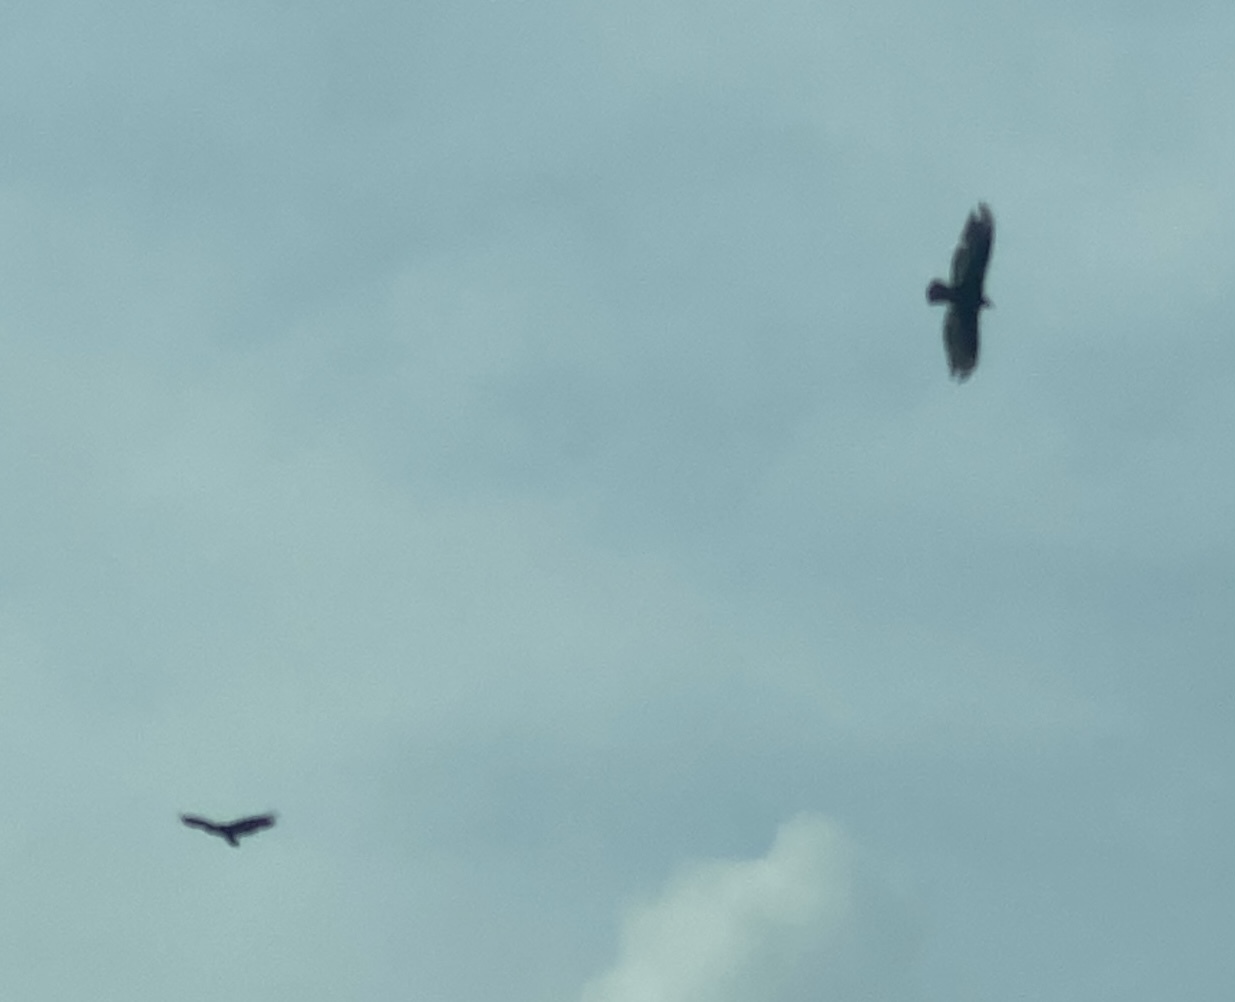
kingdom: Animalia
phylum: Chordata
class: Aves
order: Accipitriformes
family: Cathartidae
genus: Cathartes
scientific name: Cathartes aura
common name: Turkey vulture
